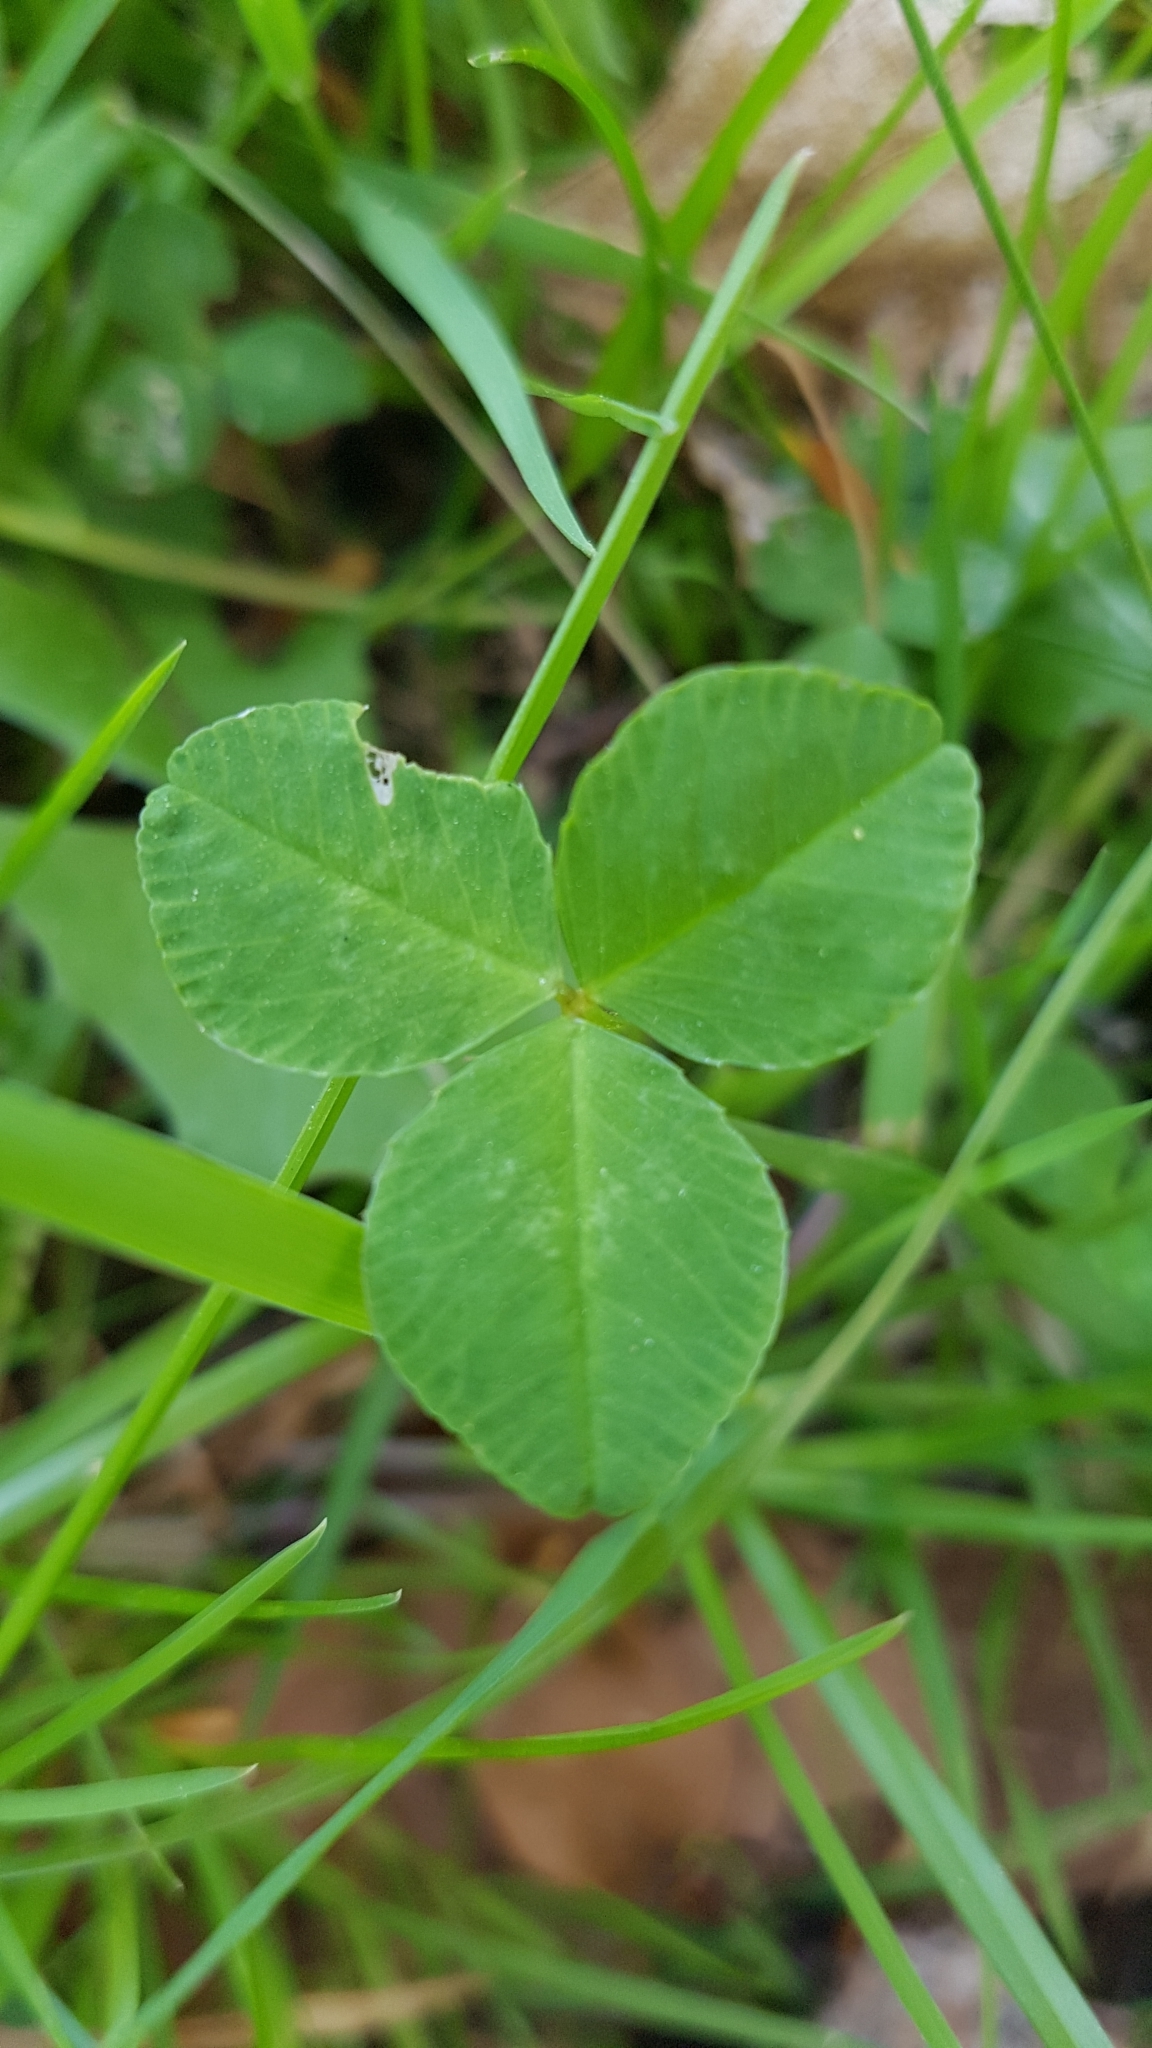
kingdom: Plantae
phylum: Tracheophyta
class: Magnoliopsida
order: Fabales
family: Fabaceae
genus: Trifolium
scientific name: Trifolium repens
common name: White clover
